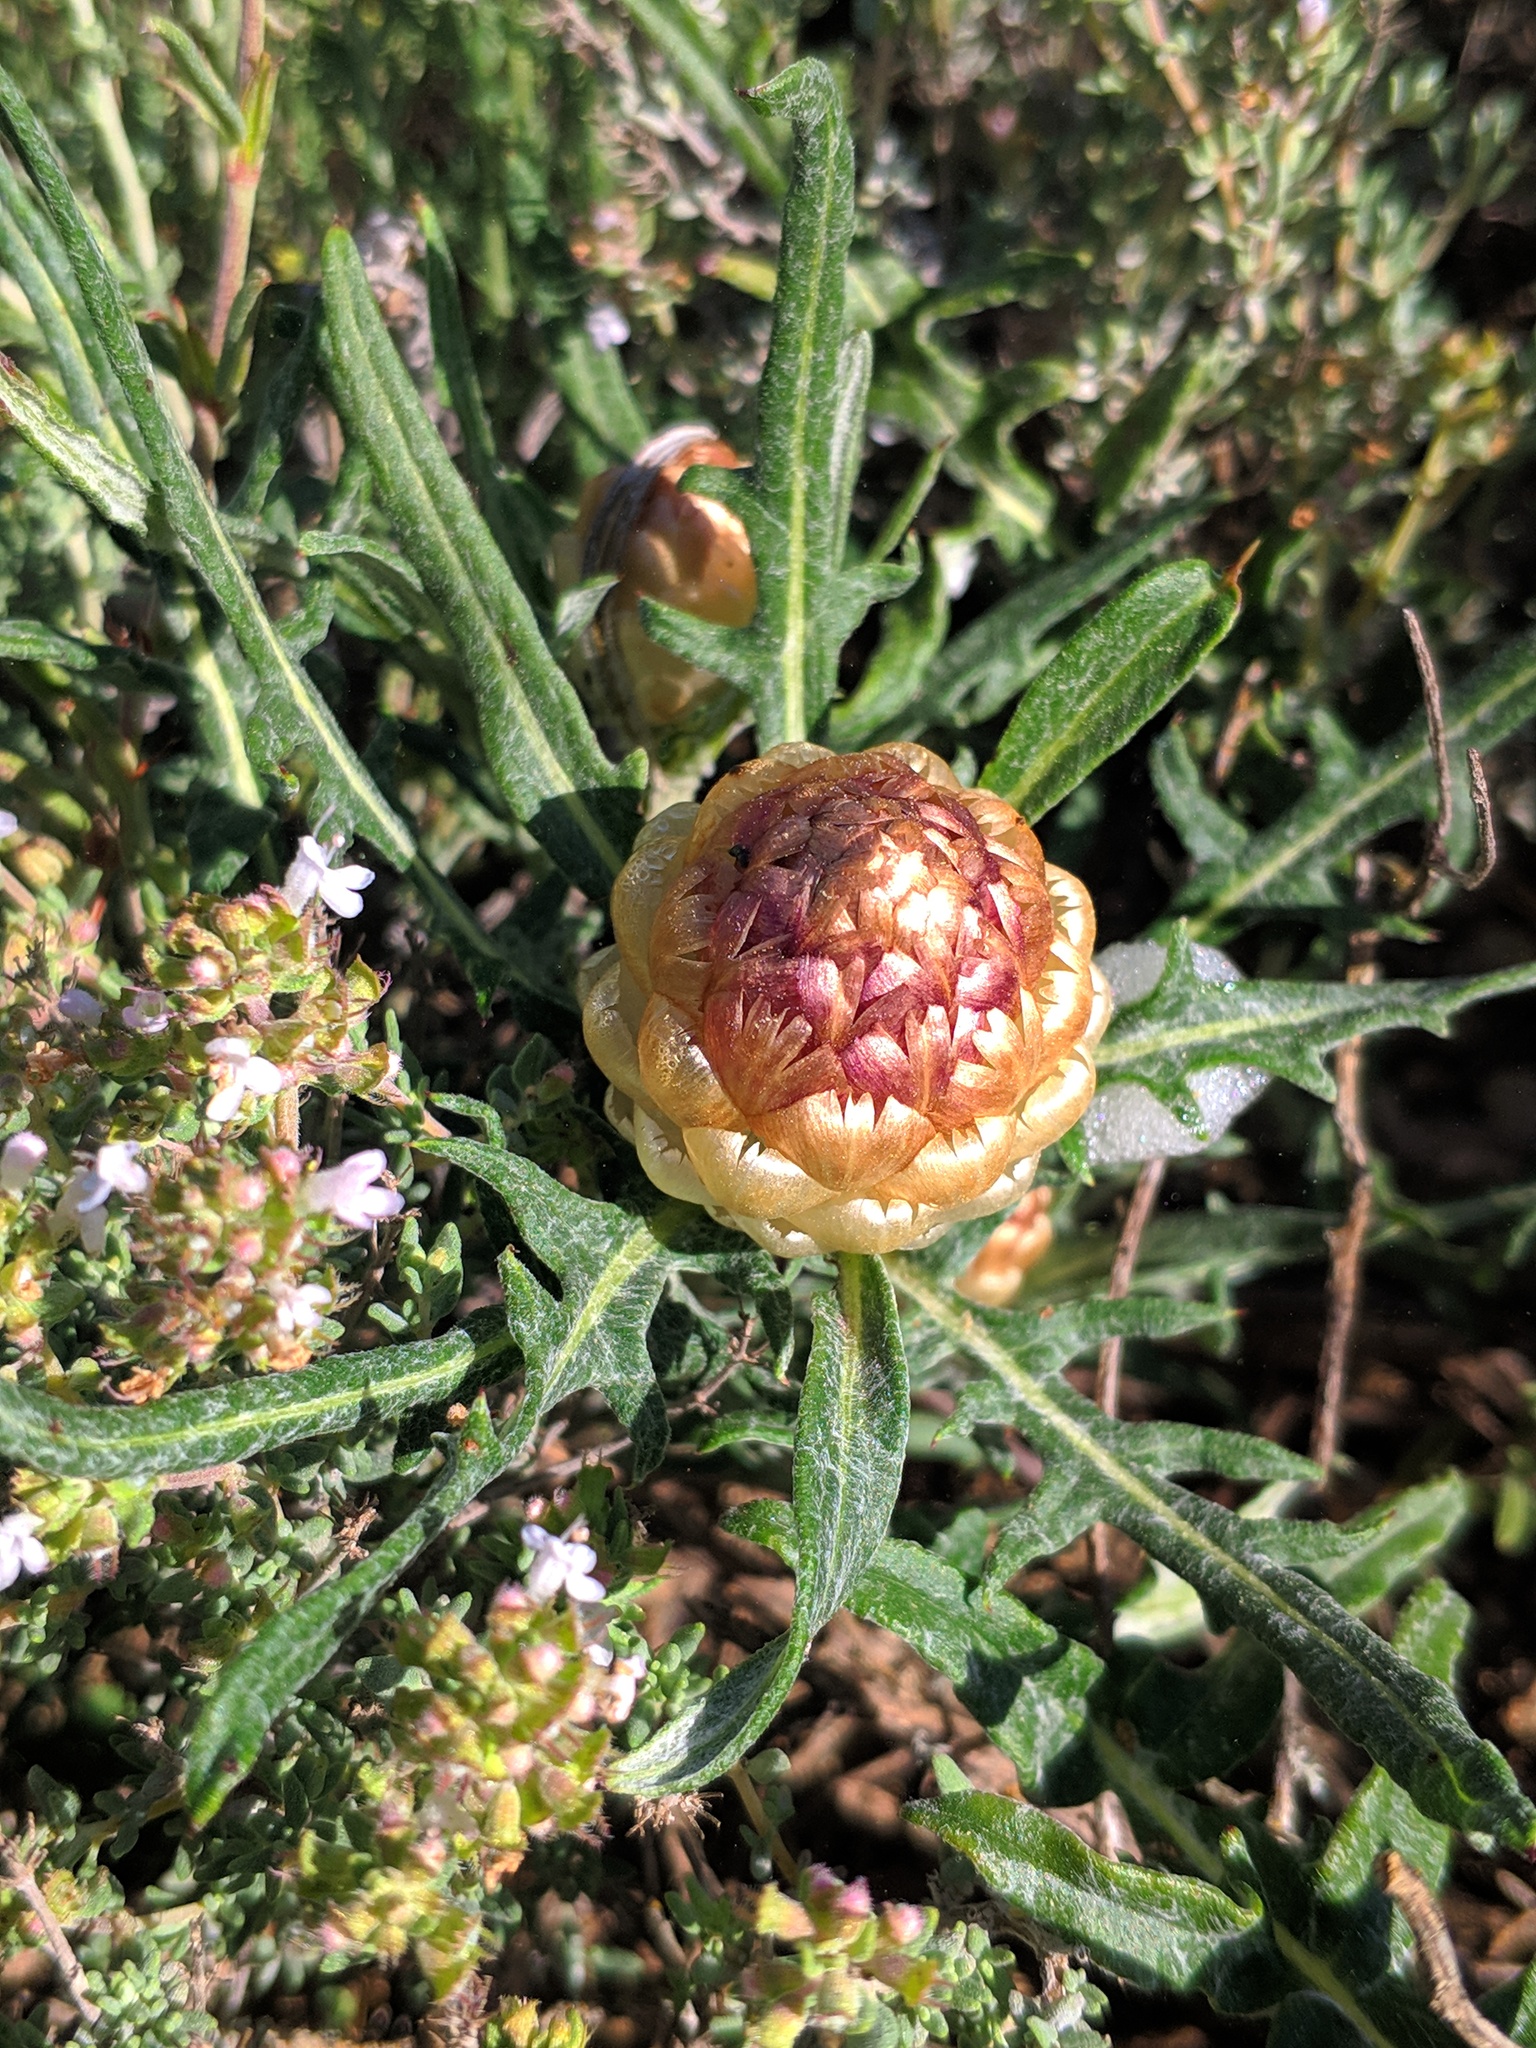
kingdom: Plantae
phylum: Tracheophyta
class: Magnoliopsida
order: Asterales
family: Asteraceae
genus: Leuzea
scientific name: Leuzea conifera
